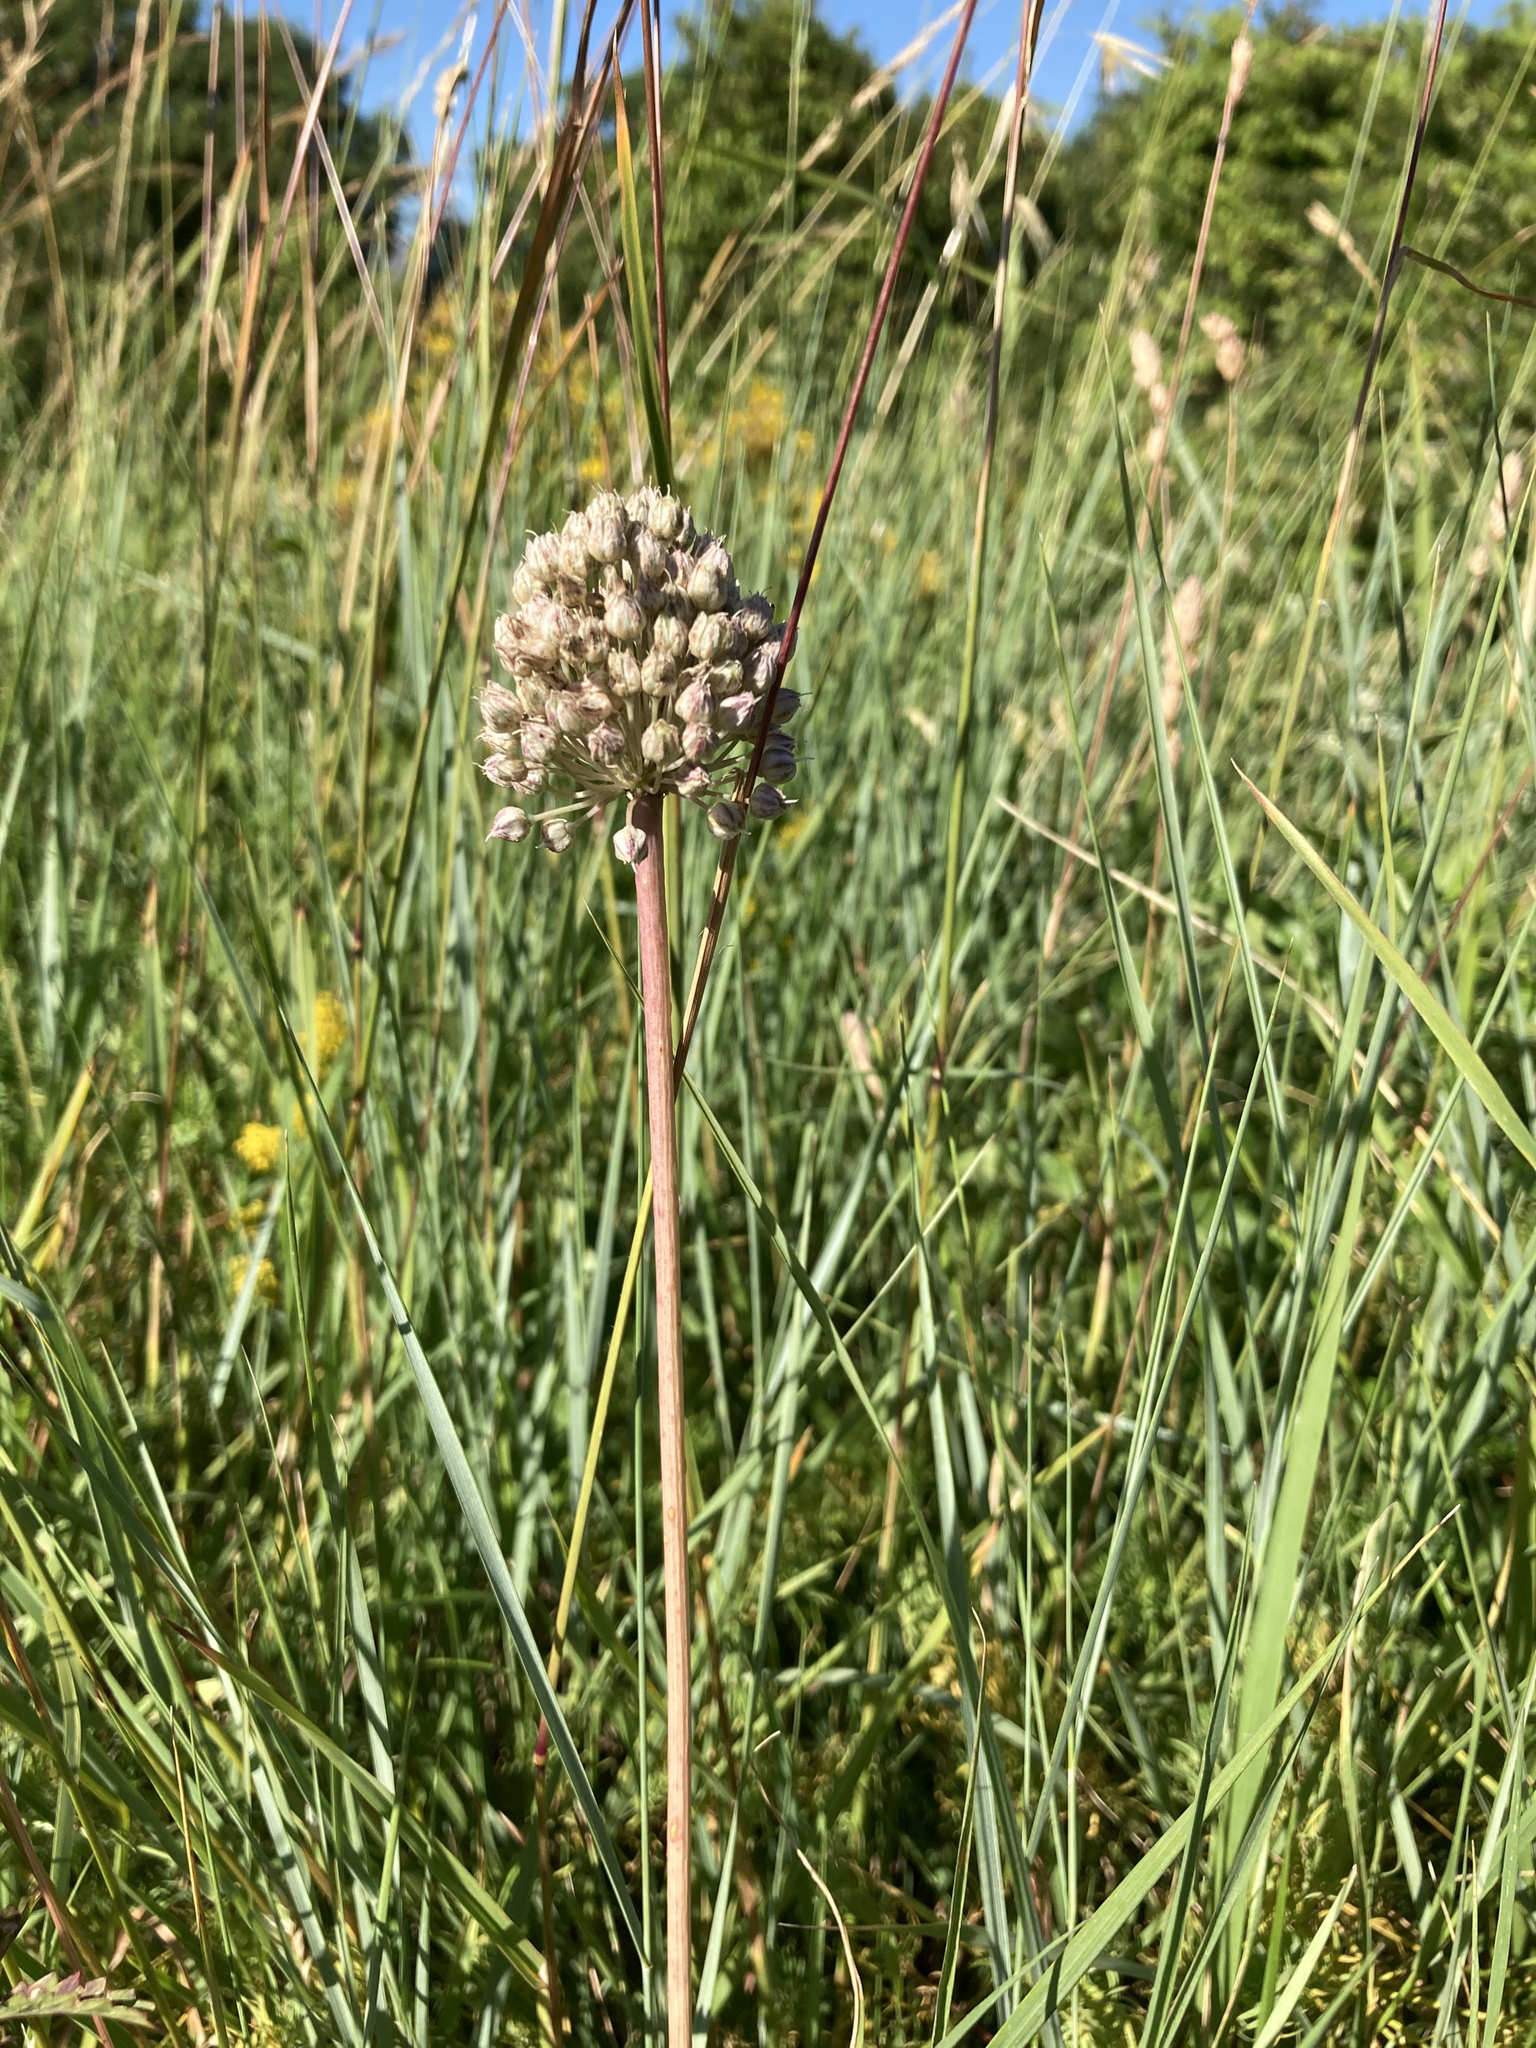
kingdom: Plantae
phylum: Tracheophyta
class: Liliopsida
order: Asparagales
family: Amaryllidaceae
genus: Allium
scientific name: Allium ampeloprasum
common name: Wild leek
